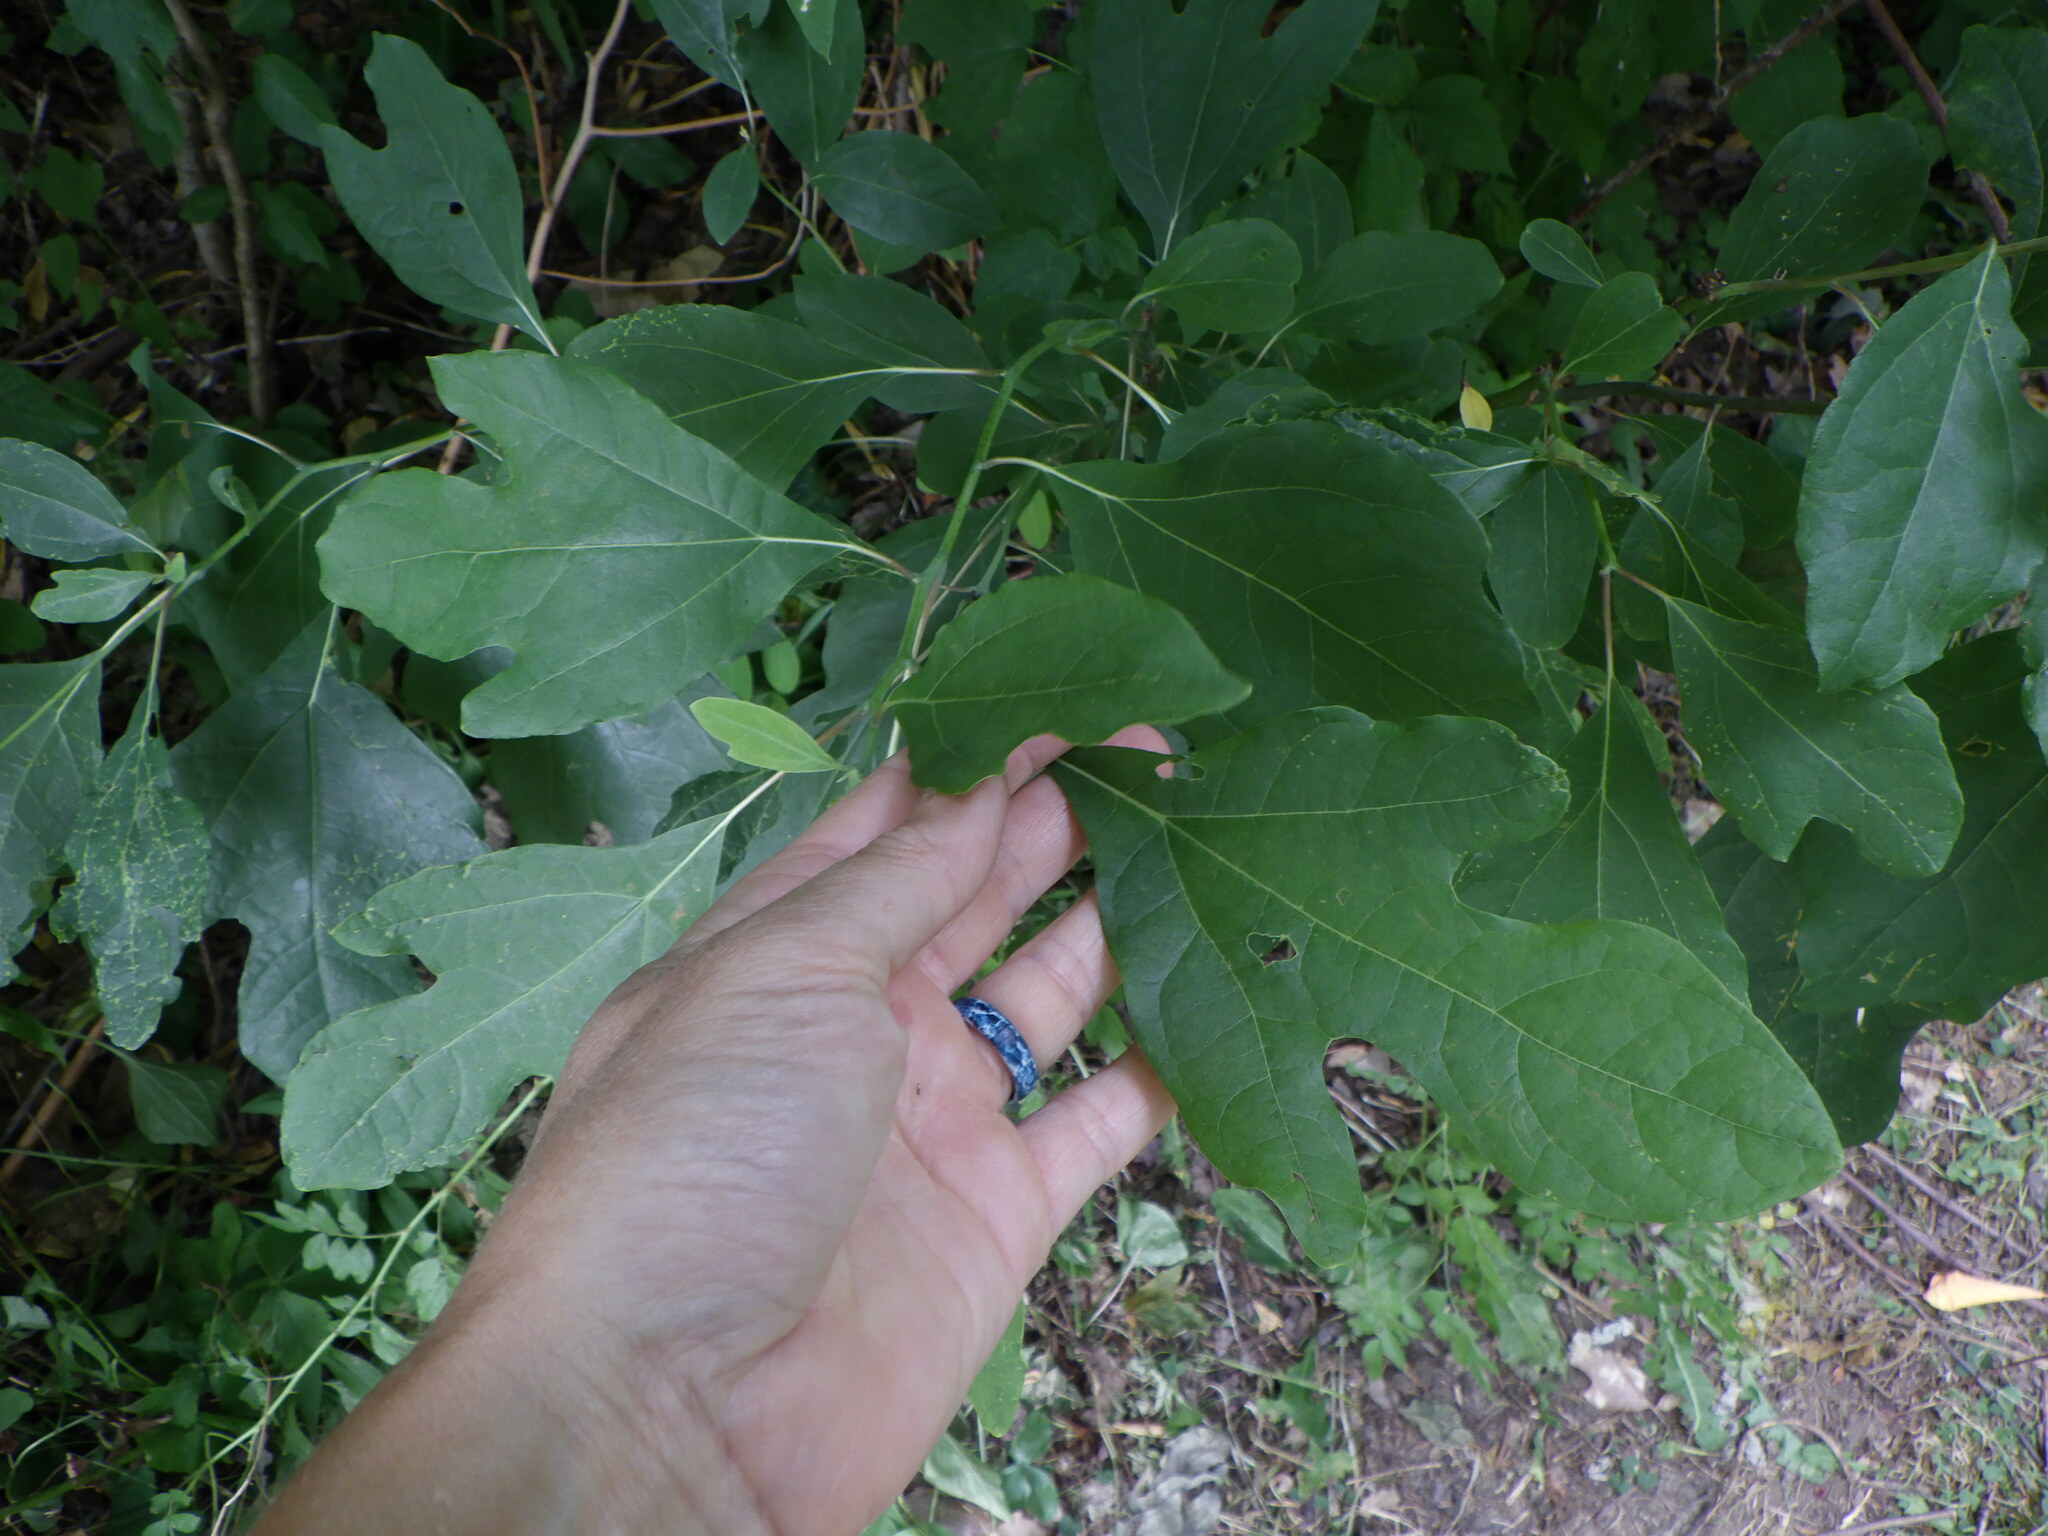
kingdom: Plantae
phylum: Tracheophyta
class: Magnoliopsida
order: Laurales
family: Lauraceae
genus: Sassafras
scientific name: Sassafras albidum
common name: Sassafras
